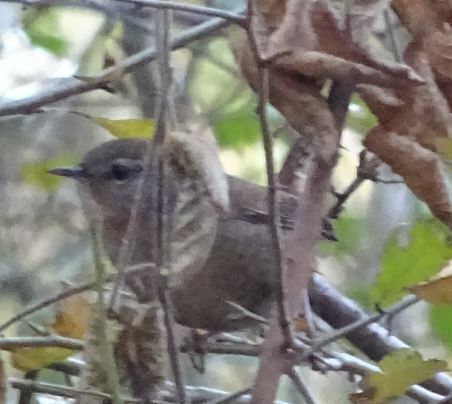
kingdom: Animalia
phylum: Chordata
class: Aves
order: Passeriformes
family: Troglodytidae
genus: Troglodytes
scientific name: Troglodytes troglodytes
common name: Eurasian wren
